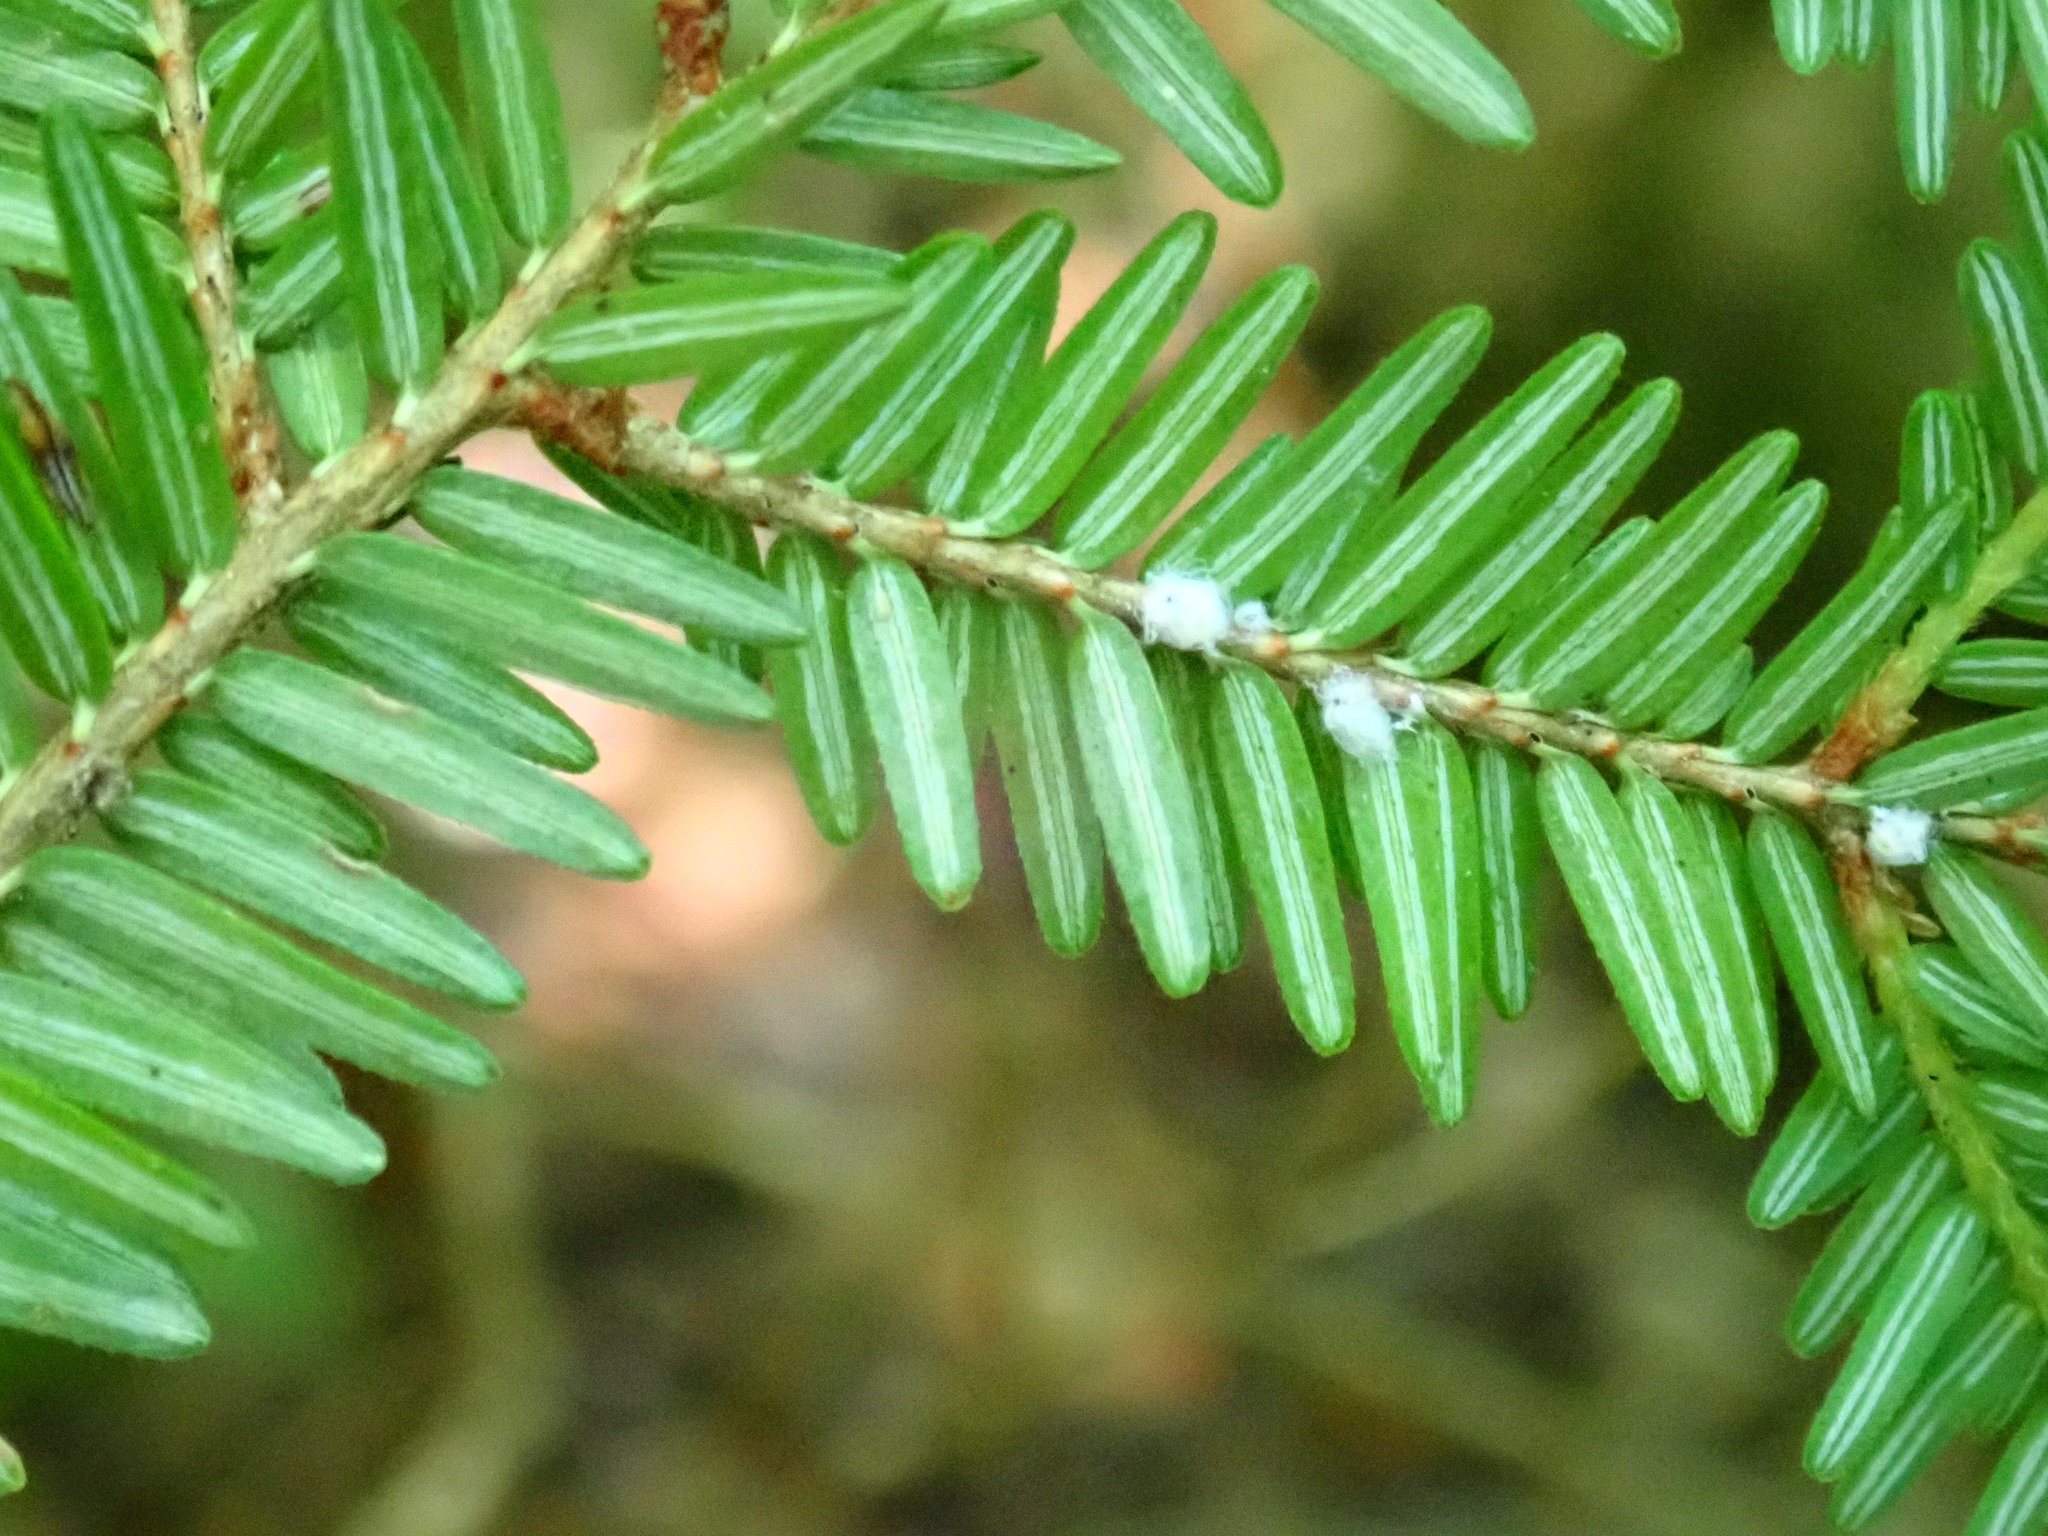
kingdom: Animalia
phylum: Arthropoda
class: Insecta
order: Hemiptera
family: Adelgidae
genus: Adelges
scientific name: Adelges tsugae
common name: Hemlock woolly adelgid
